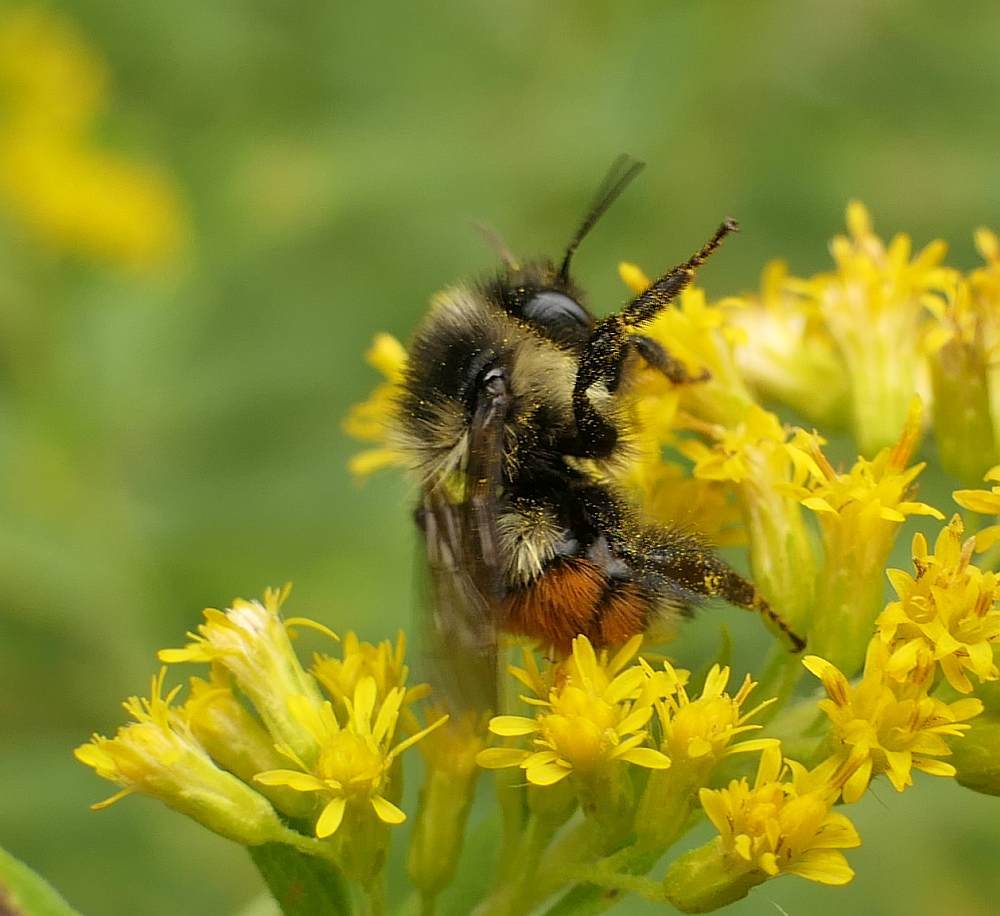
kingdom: Animalia
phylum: Arthropoda
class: Insecta
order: Hymenoptera
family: Apidae
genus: Bombus
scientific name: Bombus ternarius
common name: Tri-colored bumble bee
